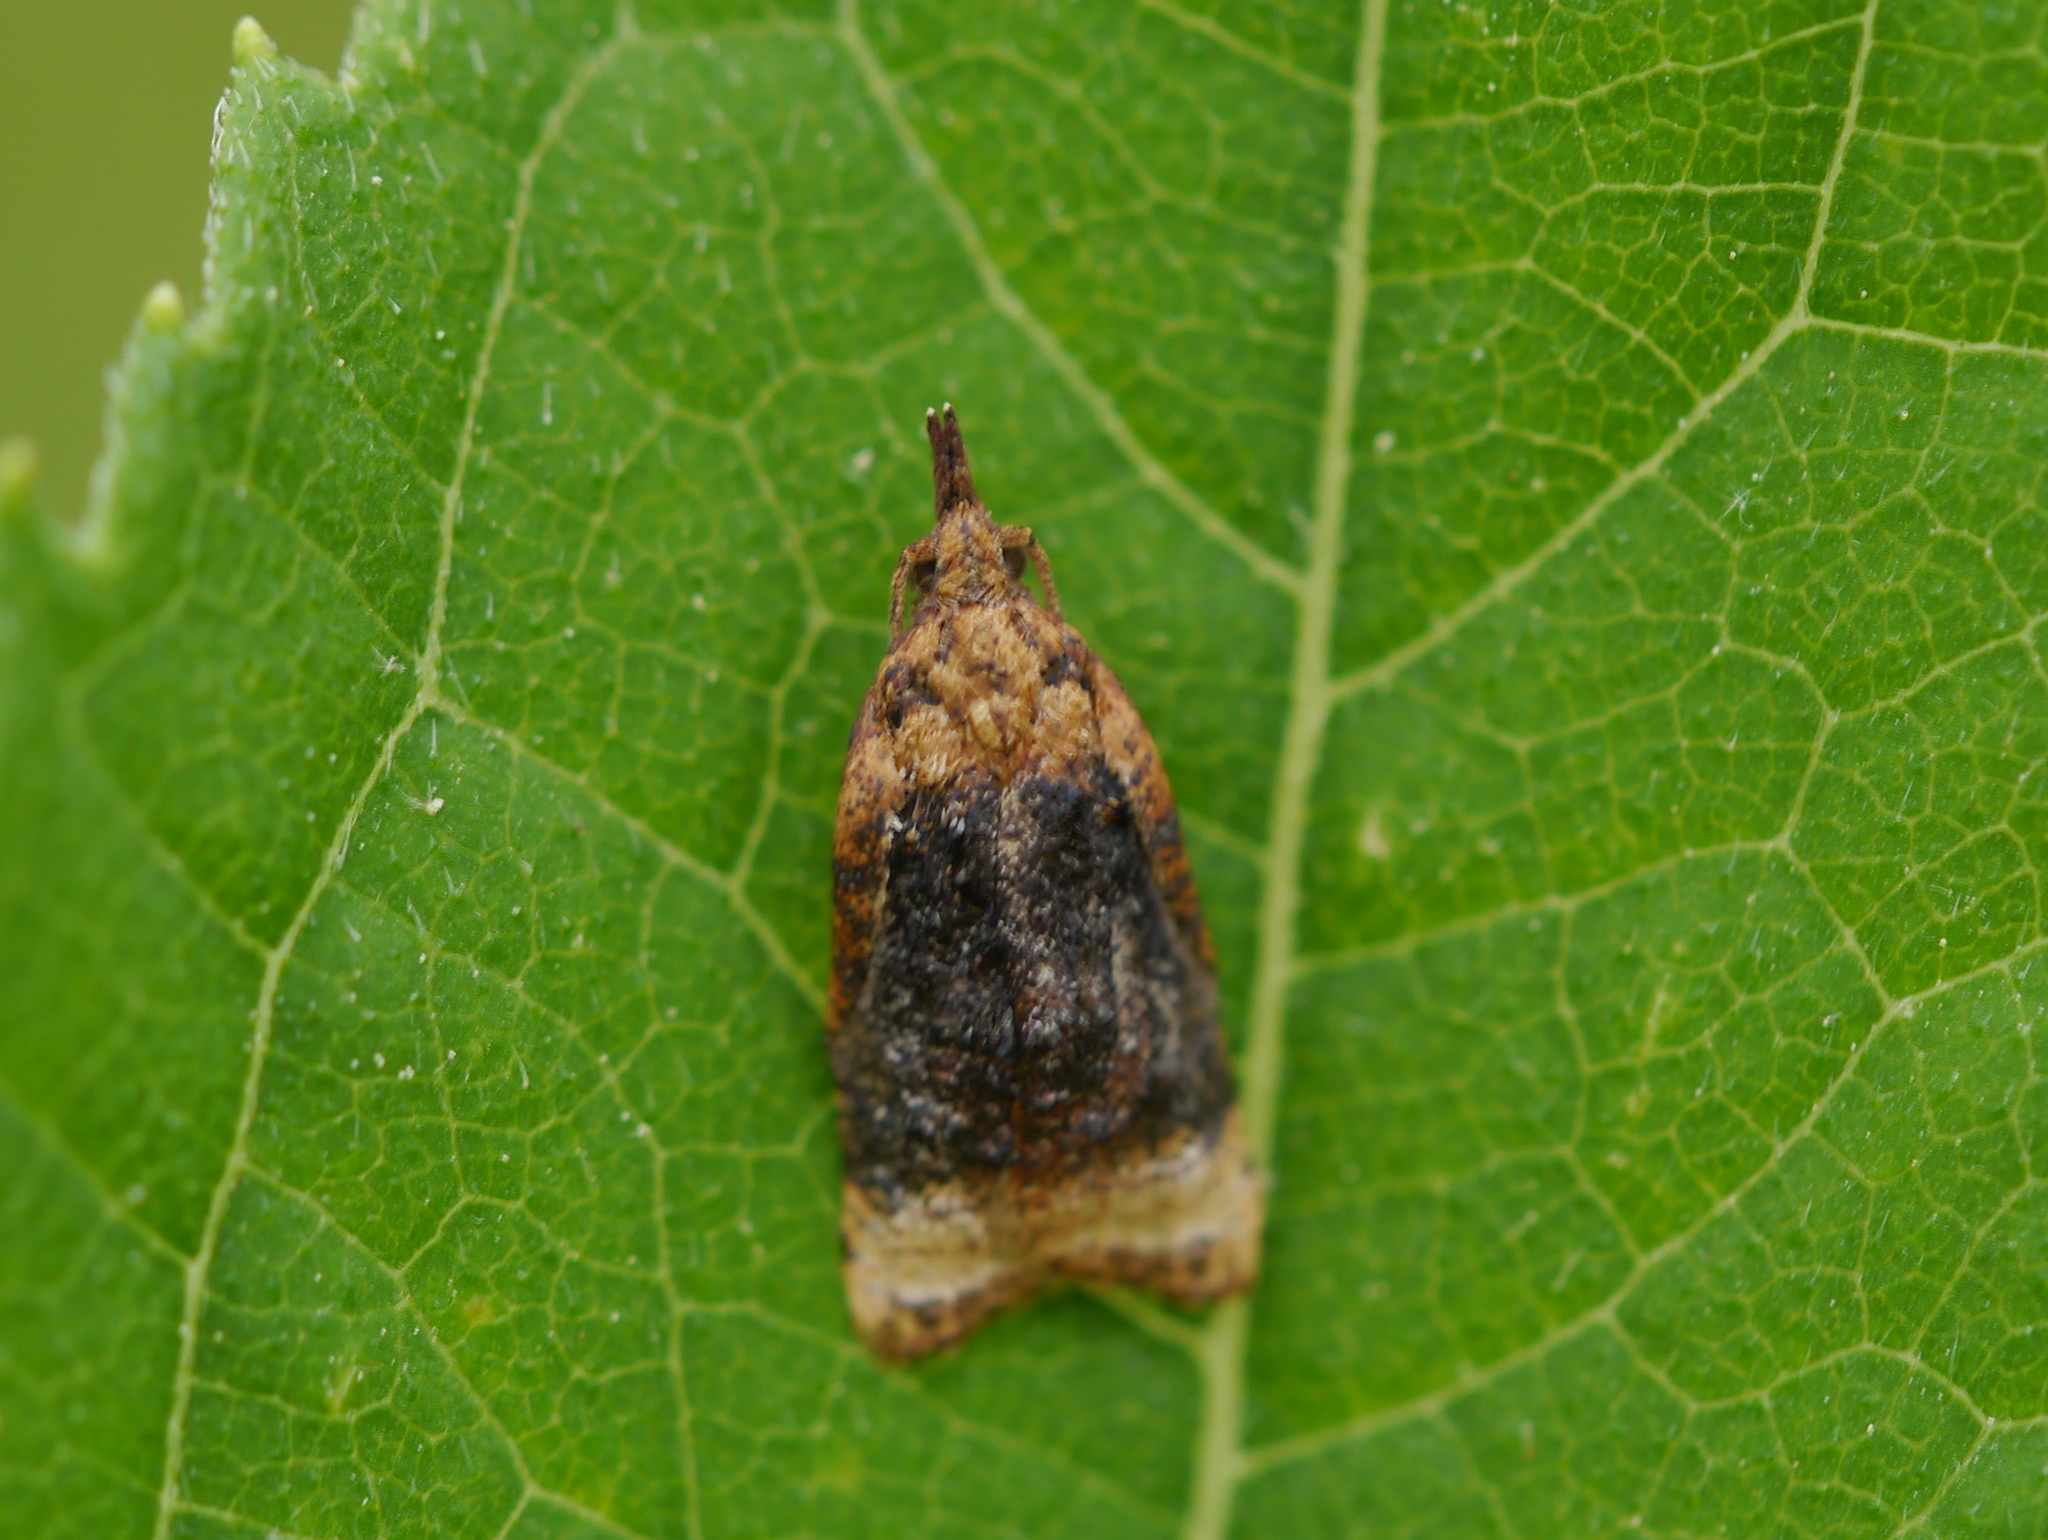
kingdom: Animalia
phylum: Arthropoda
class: Insecta
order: Lepidoptera
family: Tortricidae
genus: Platynota
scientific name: Platynota flavedana
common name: Black-shaded platynota moth
